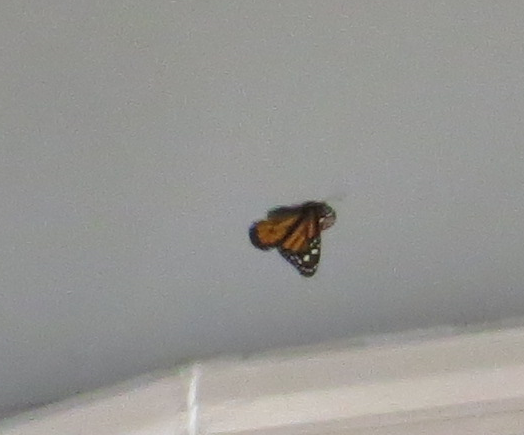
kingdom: Animalia
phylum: Arthropoda
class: Insecta
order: Lepidoptera
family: Nymphalidae
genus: Danaus
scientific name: Danaus plexippus
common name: Monarch
